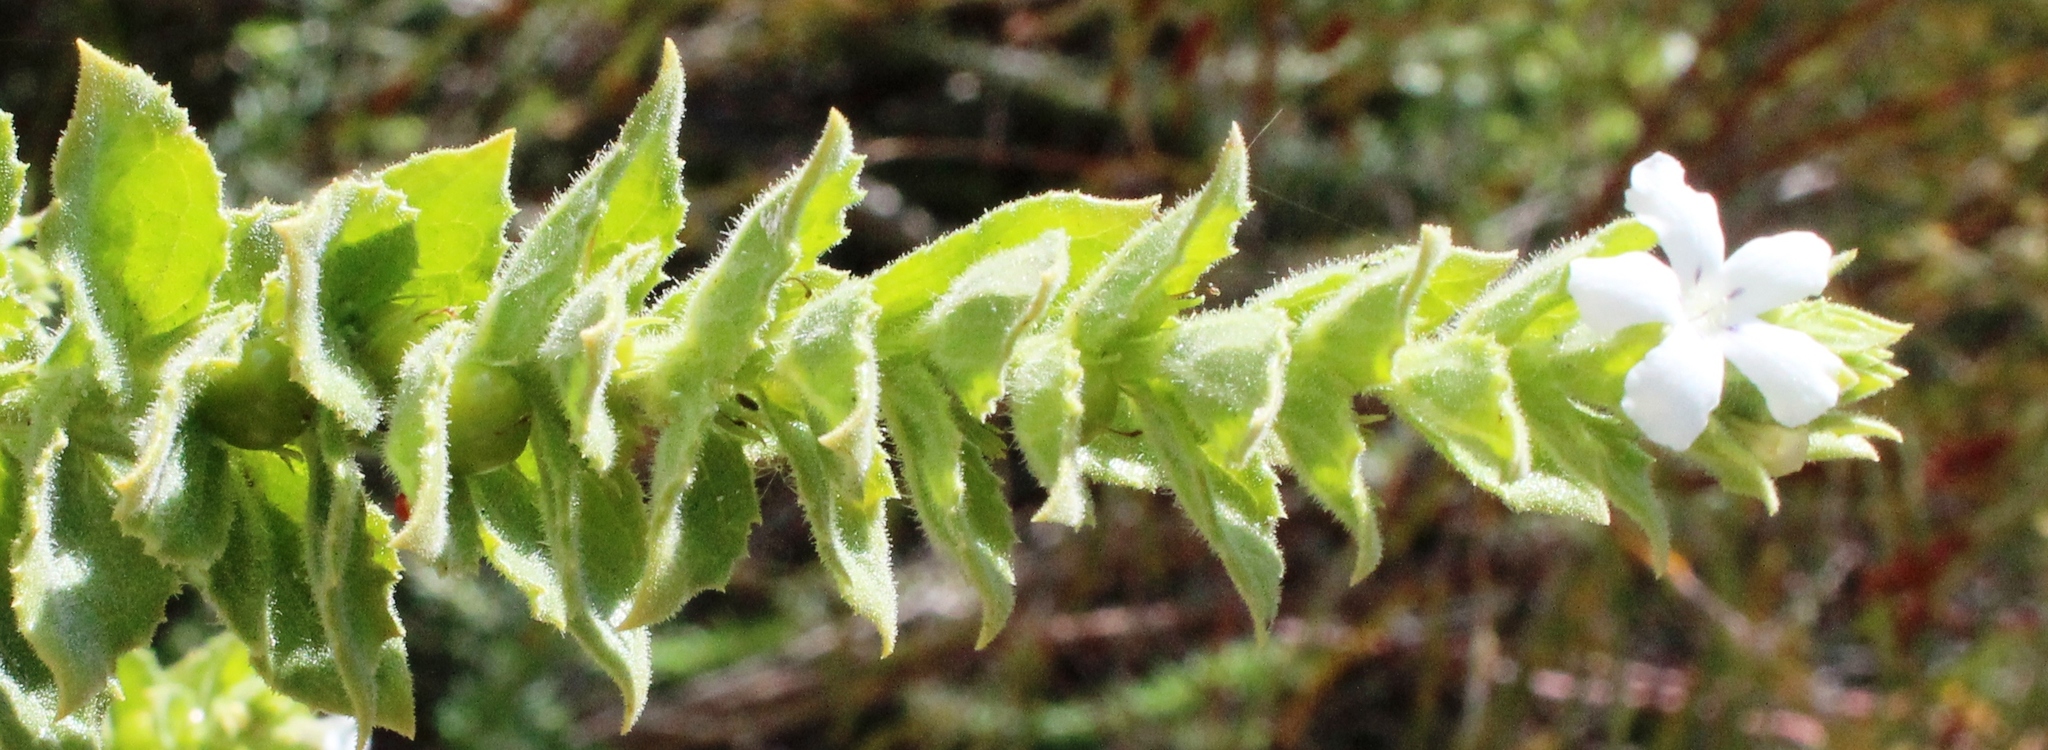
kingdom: Plantae
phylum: Tracheophyta
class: Magnoliopsida
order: Lamiales
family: Scrophulariaceae
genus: Oftia
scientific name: Oftia africana
